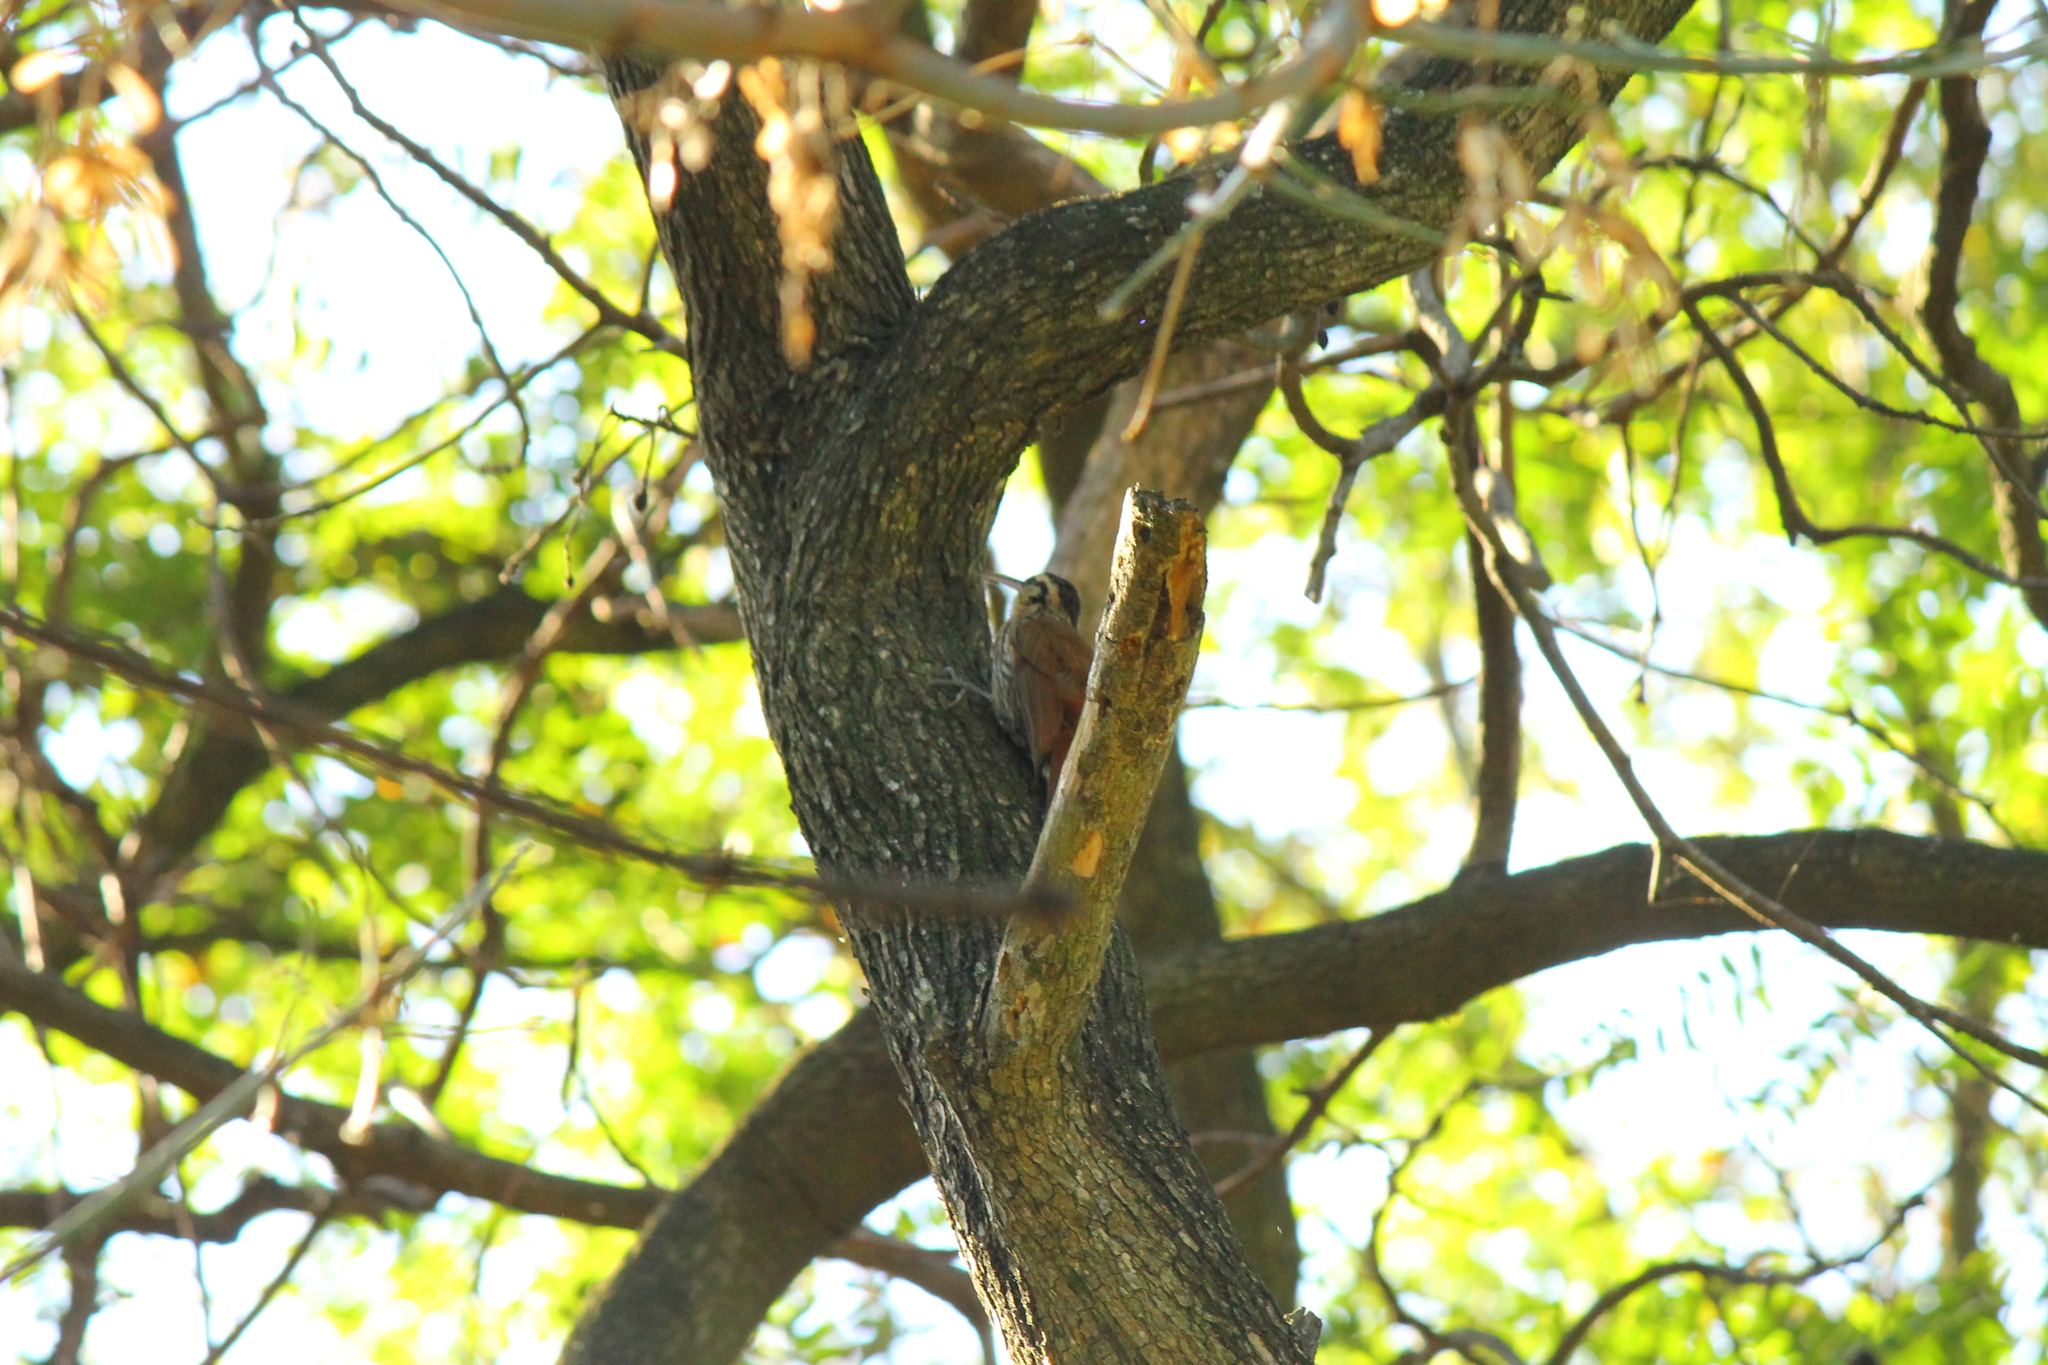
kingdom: Animalia
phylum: Chordata
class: Aves
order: Passeriformes
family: Furnariidae
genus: Lepidocolaptes
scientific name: Lepidocolaptes angustirostris
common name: Narrow-billed woodcreeper
